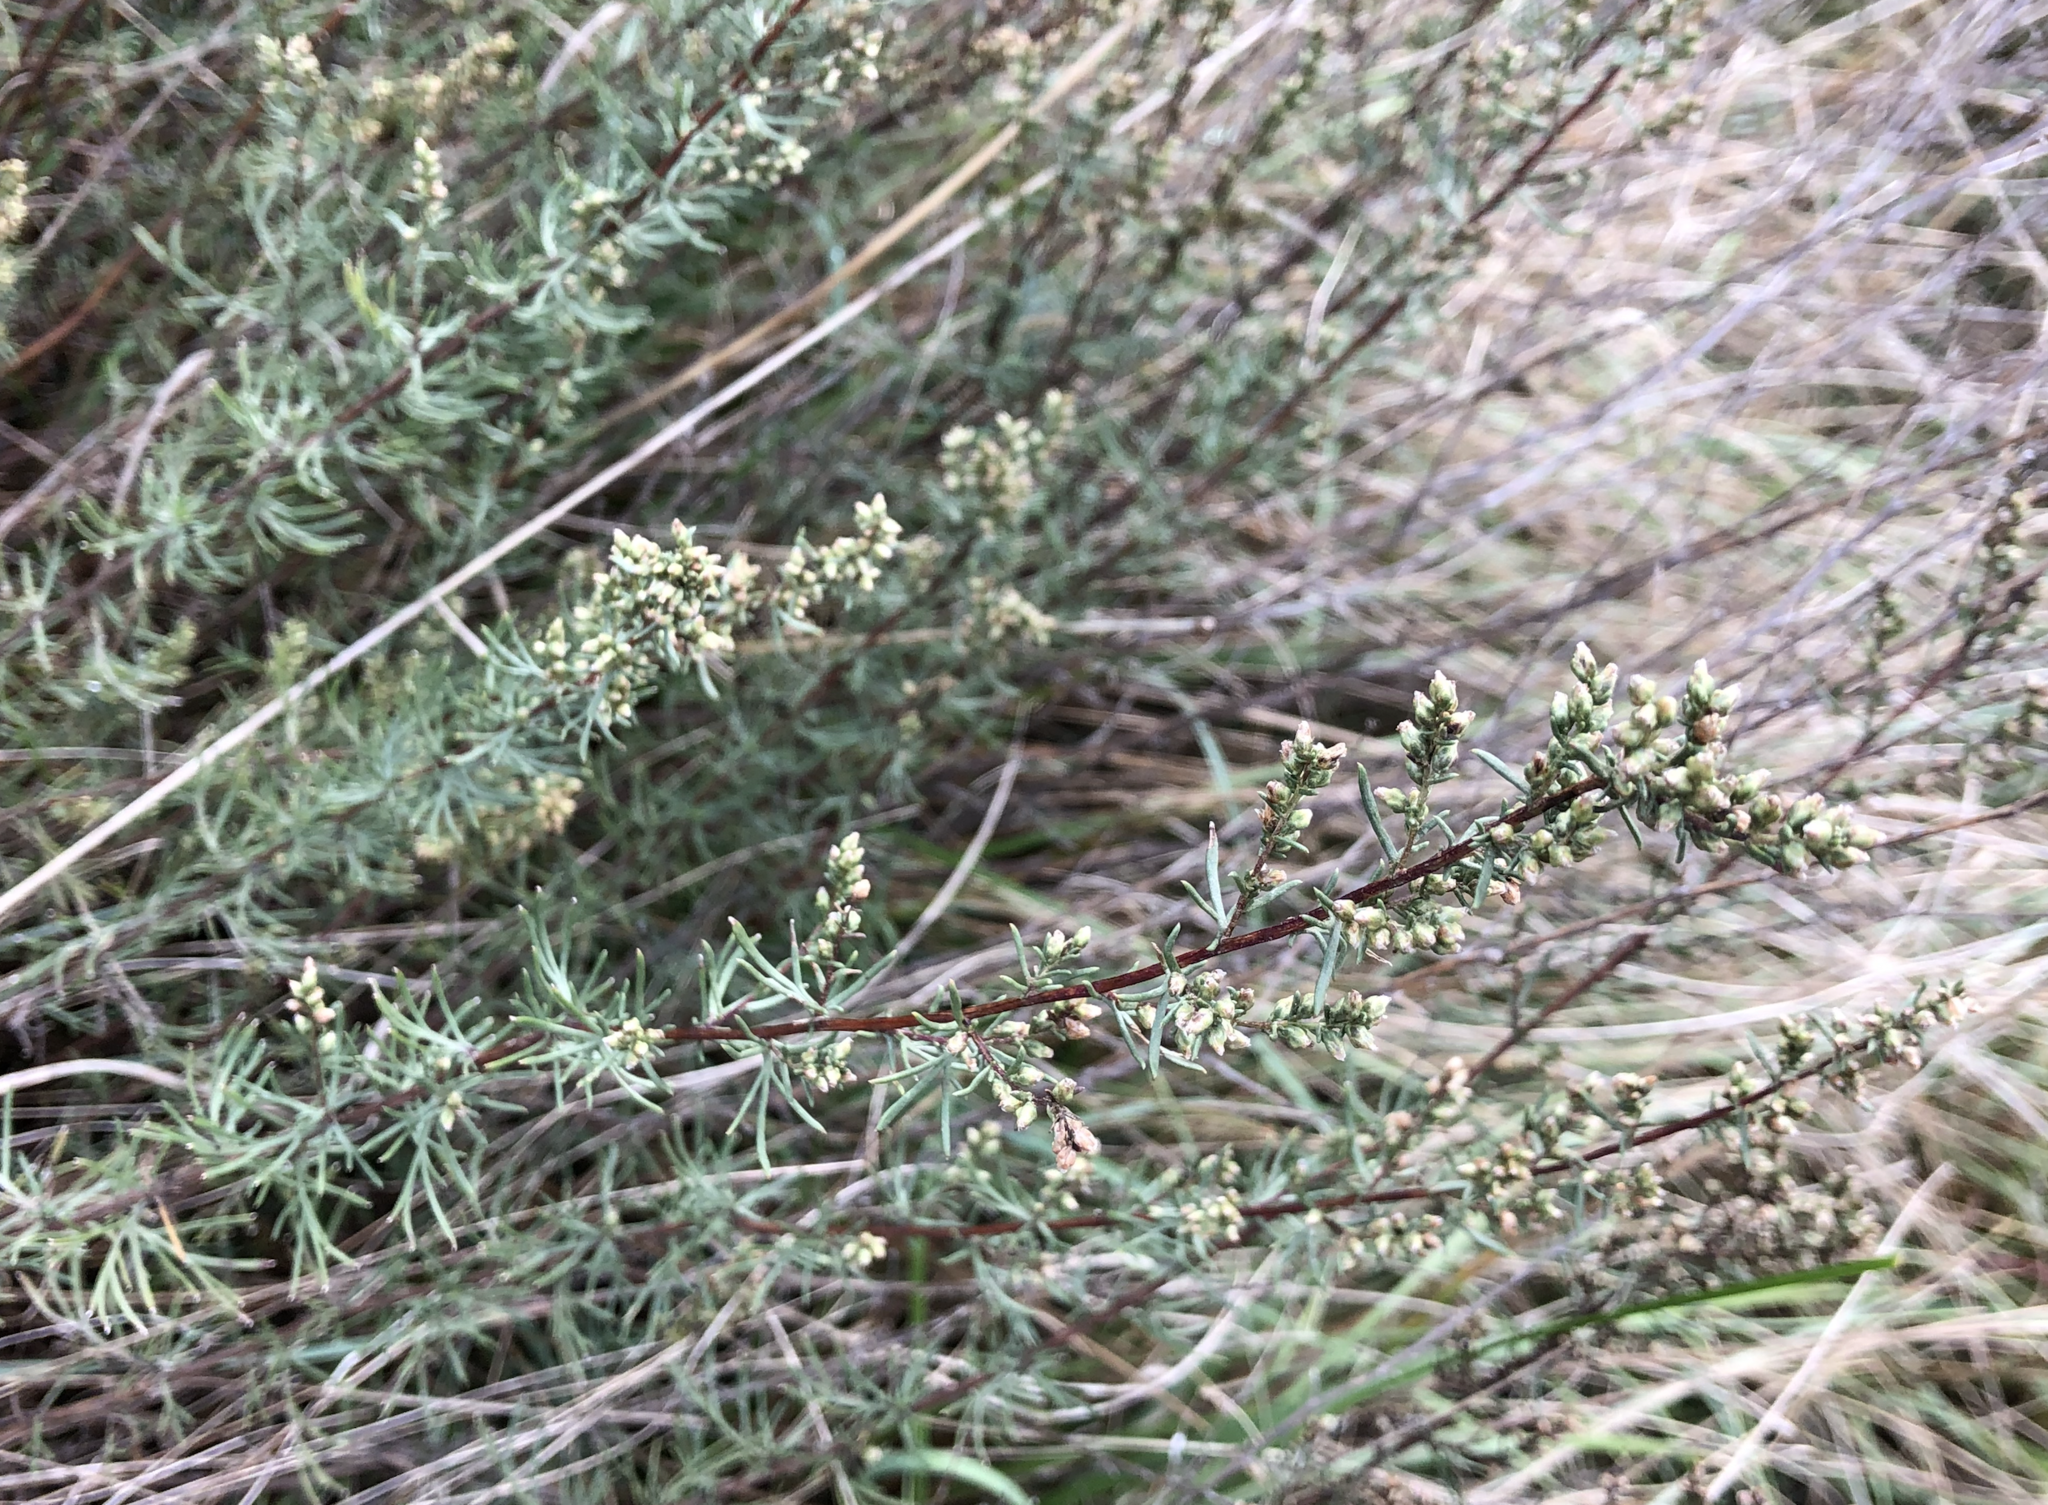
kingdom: Plantae
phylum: Tracheophyta
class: Magnoliopsida
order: Asterales
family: Asteraceae
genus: Artemisia
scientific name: Artemisia campestris
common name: Field wormwood
